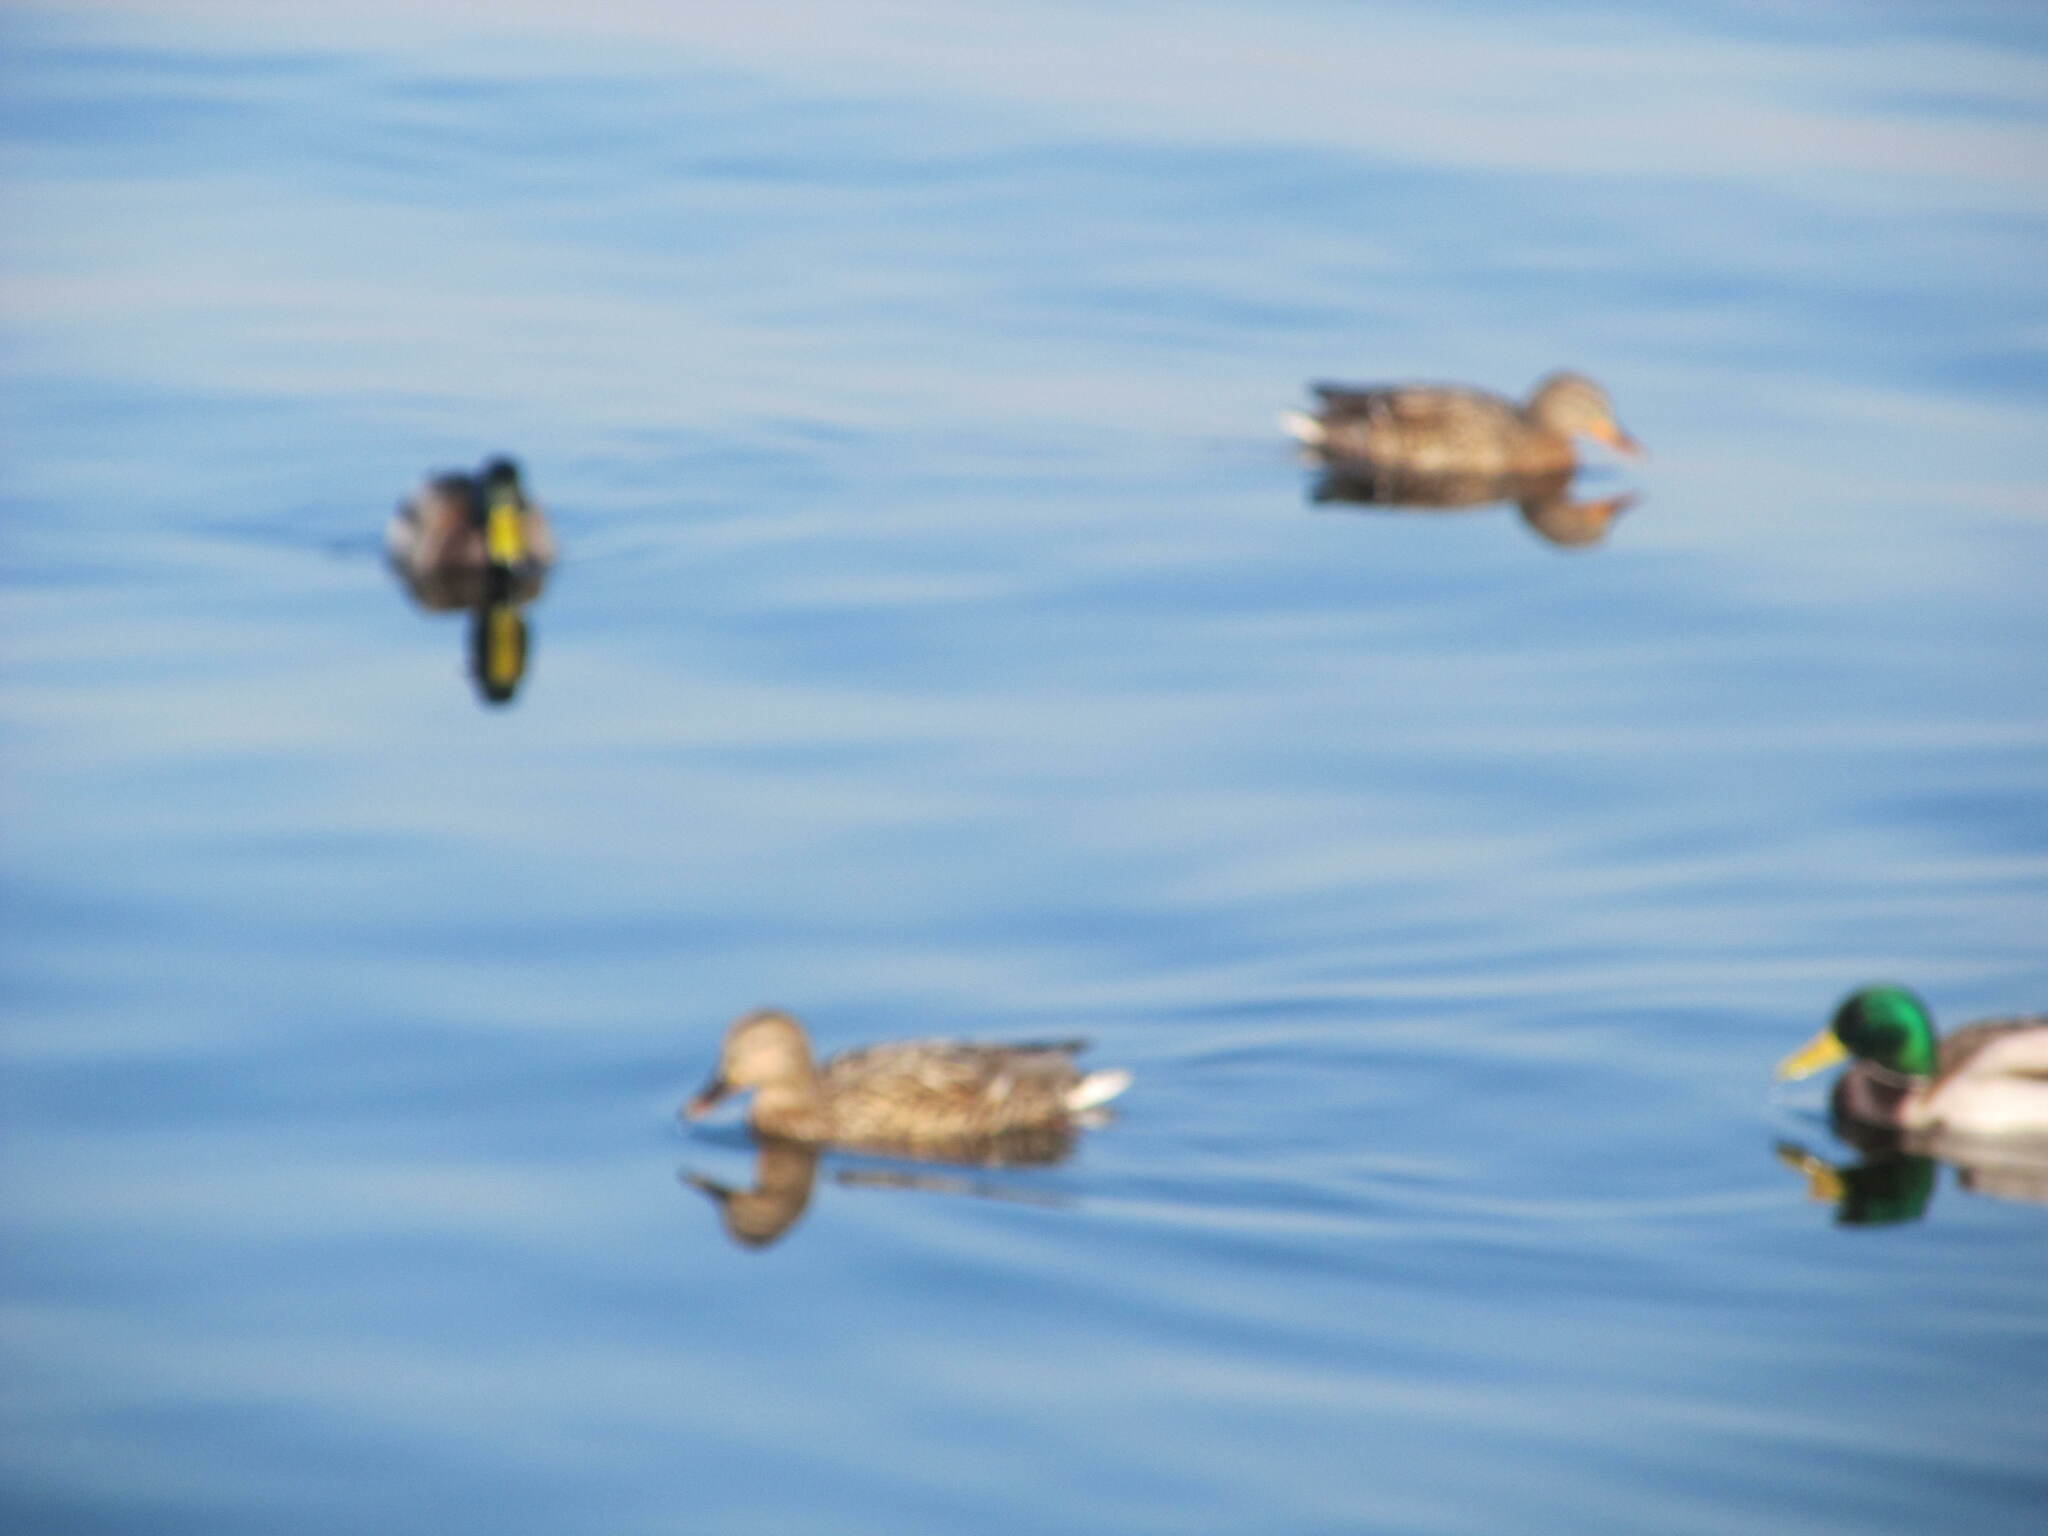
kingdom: Animalia
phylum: Chordata
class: Aves
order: Anseriformes
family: Anatidae
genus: Anas
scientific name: Anas platyrhynchos
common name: Mallard
